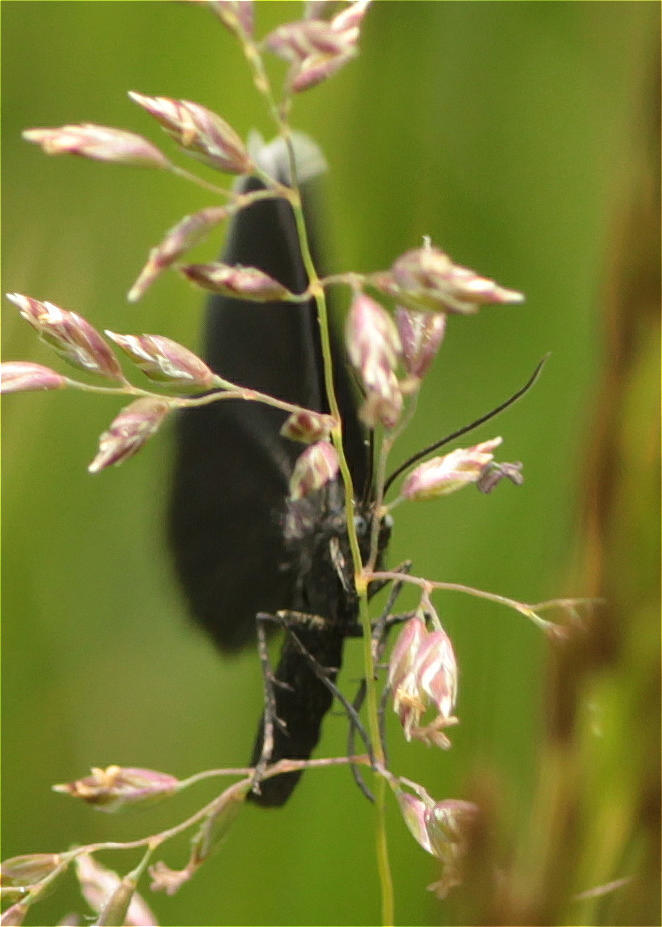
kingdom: Animalia
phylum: Arthropoda
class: Insecta
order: Lepidoptera
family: Geometridae
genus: Odezia
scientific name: Odezia atrata
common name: Chimney sweeper
